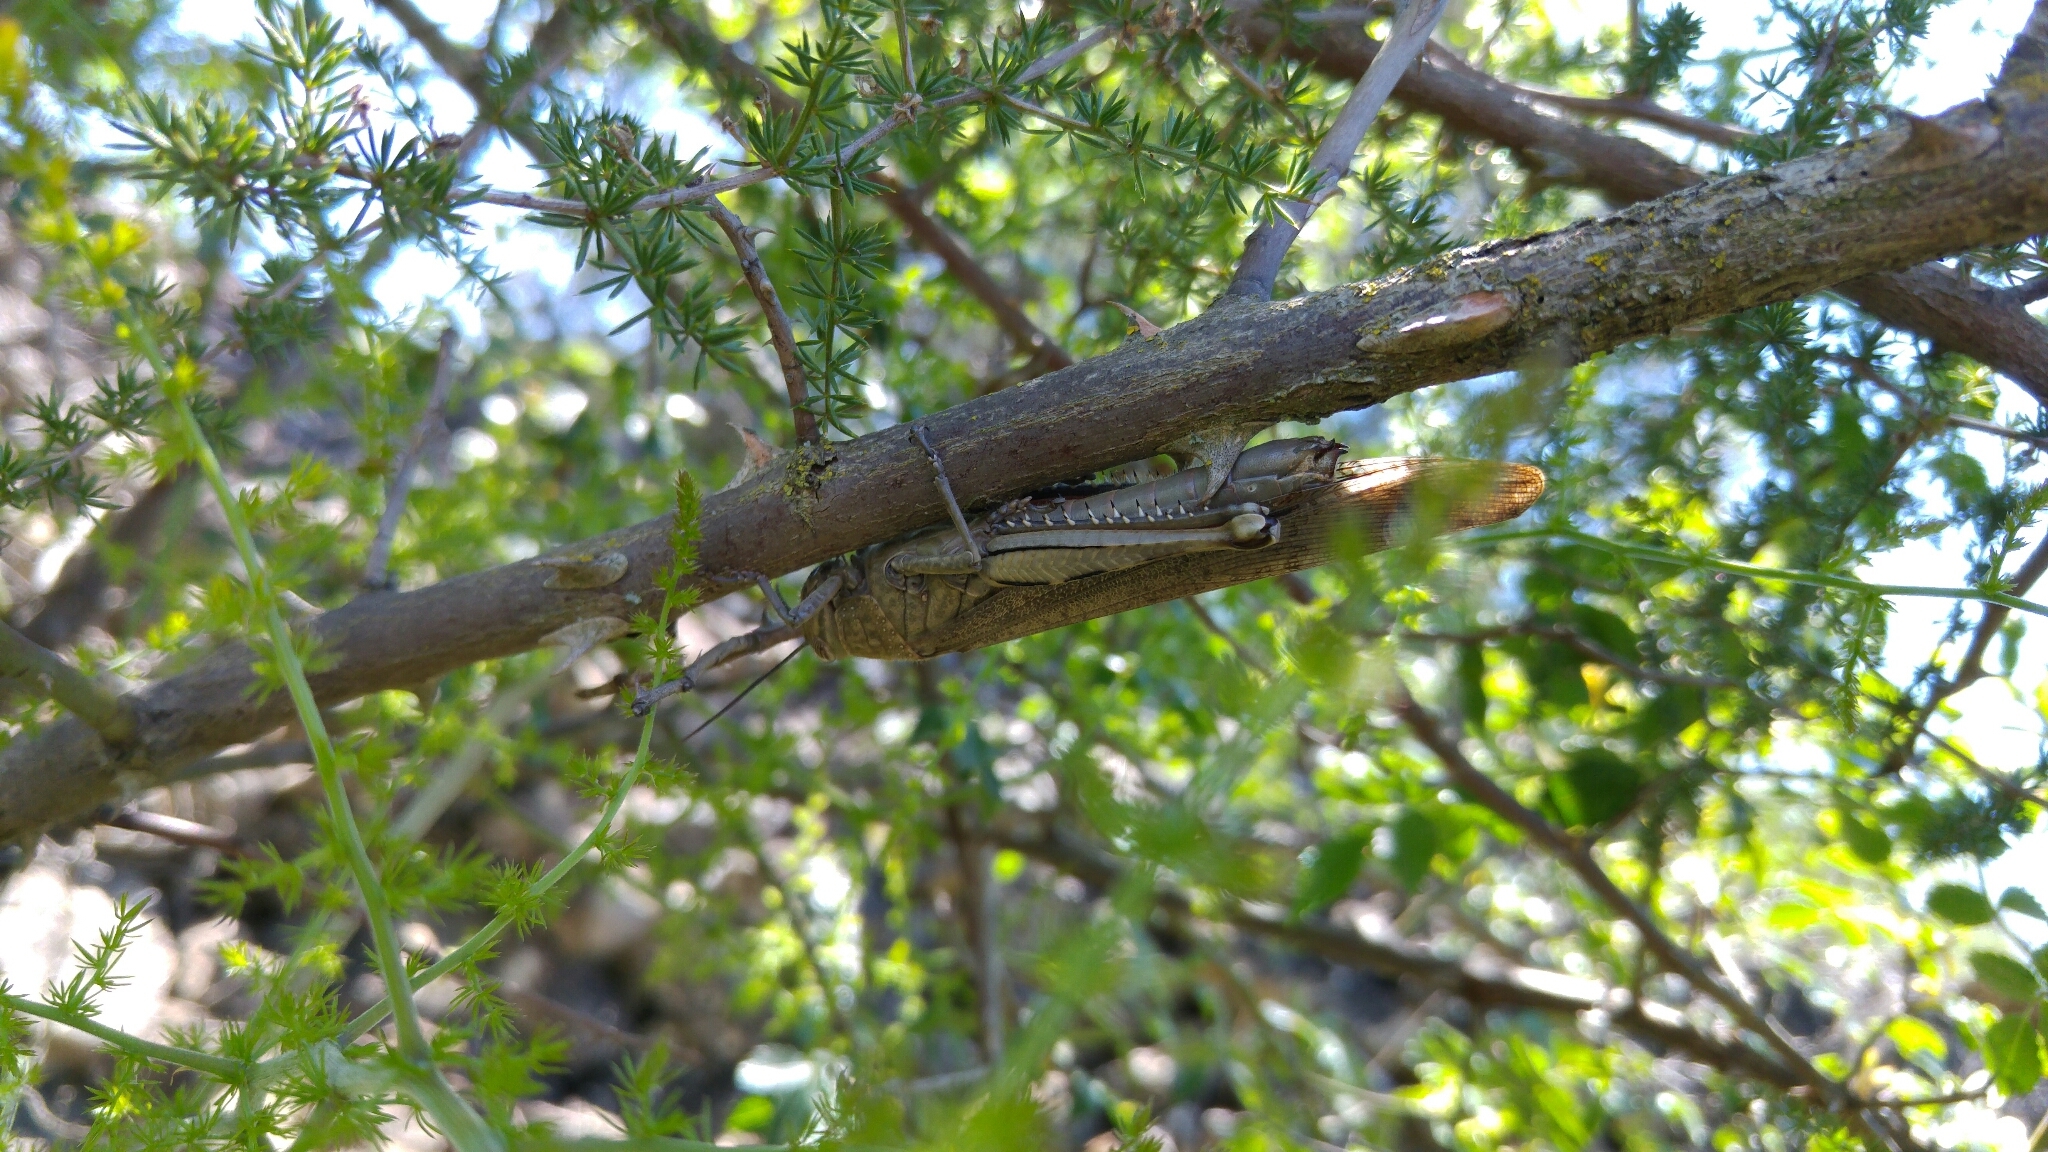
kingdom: Animalia
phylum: Arthropoda
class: Insecta
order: Orthoptera
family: Acrididae
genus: Anacridium
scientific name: Anacridium aegyptium
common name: Egyptian grasshopper
